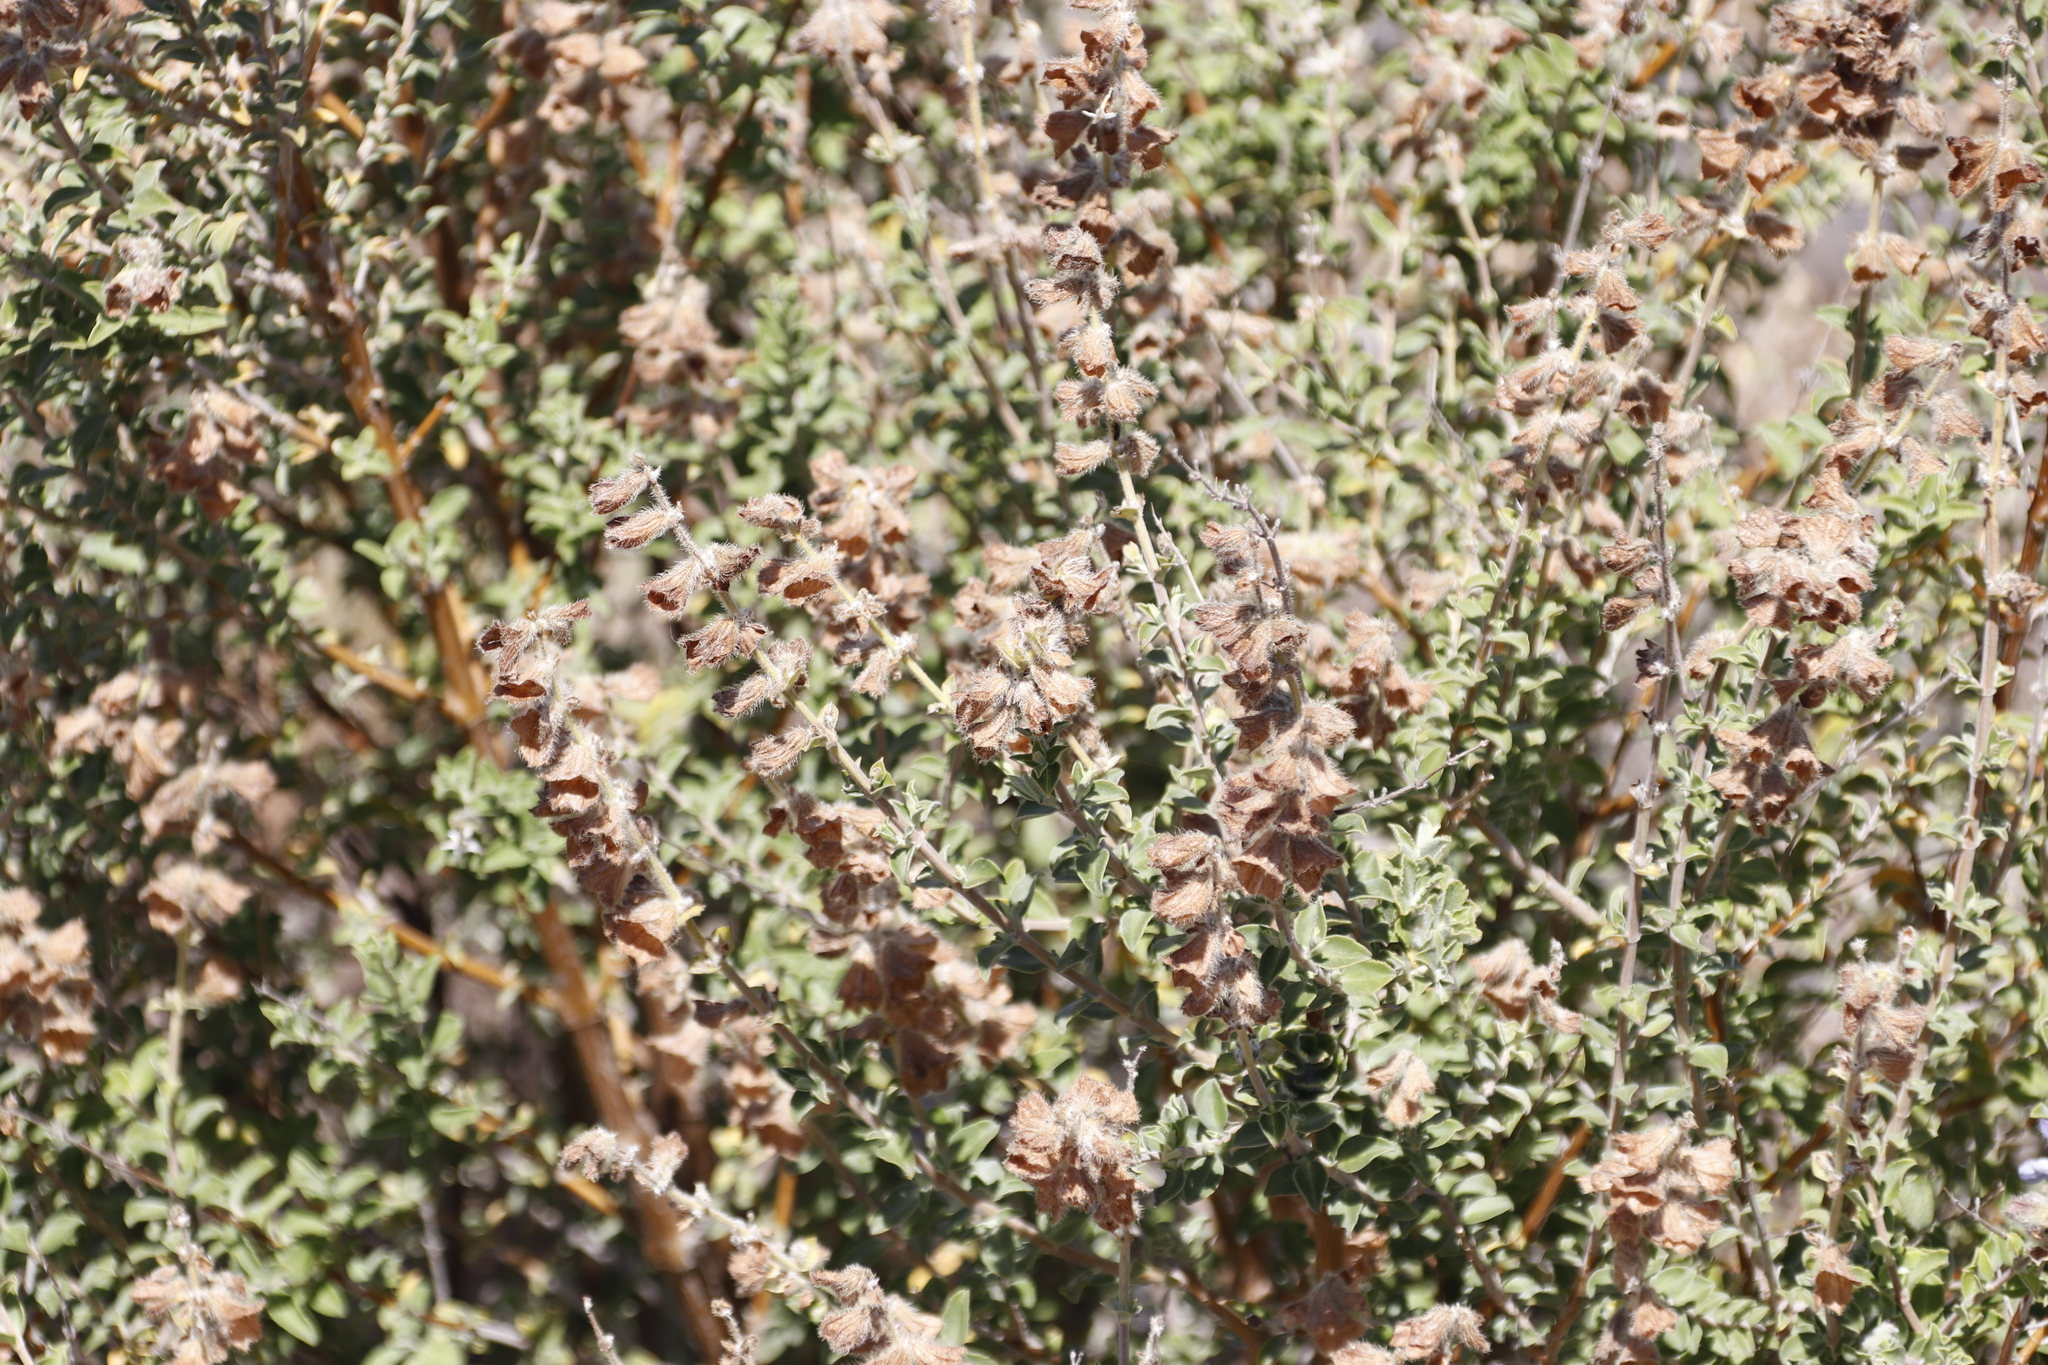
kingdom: Plantae
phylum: Tracheophyta
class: Magnoliopsida
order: Lamiales
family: Lamiaceae
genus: Salvia
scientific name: Salvia africana
